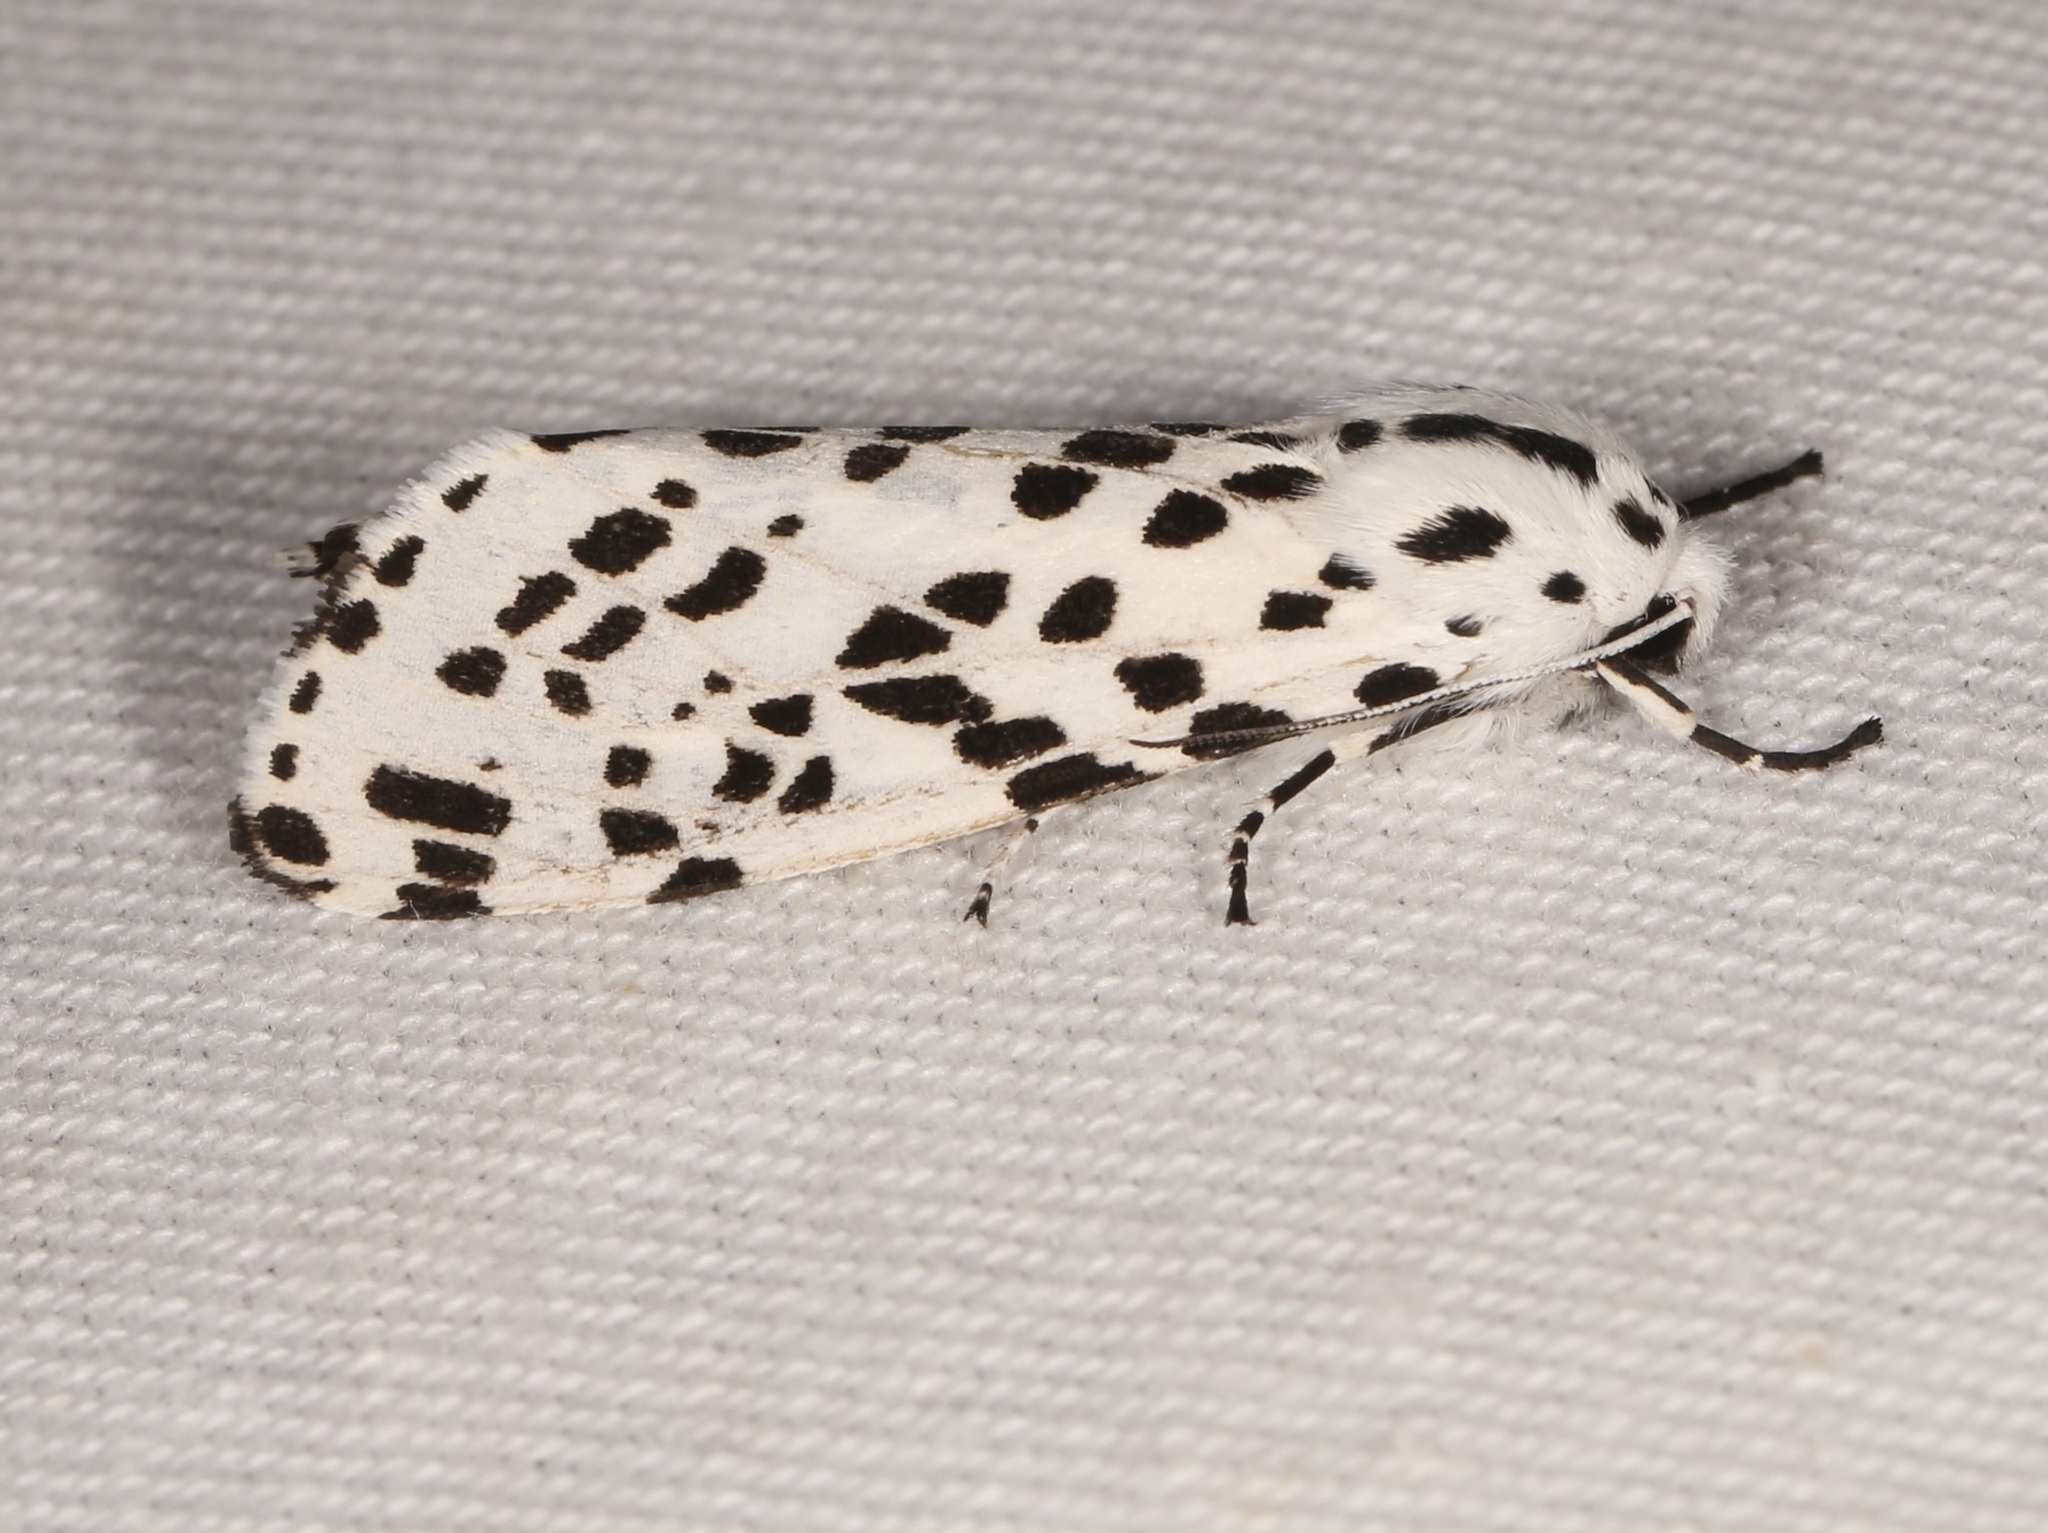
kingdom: Animalia
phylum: Arthropoda
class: Insecta
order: Lepidoptera
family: Erebidae
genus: Hypercompe
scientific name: Hypercompe permaculata
